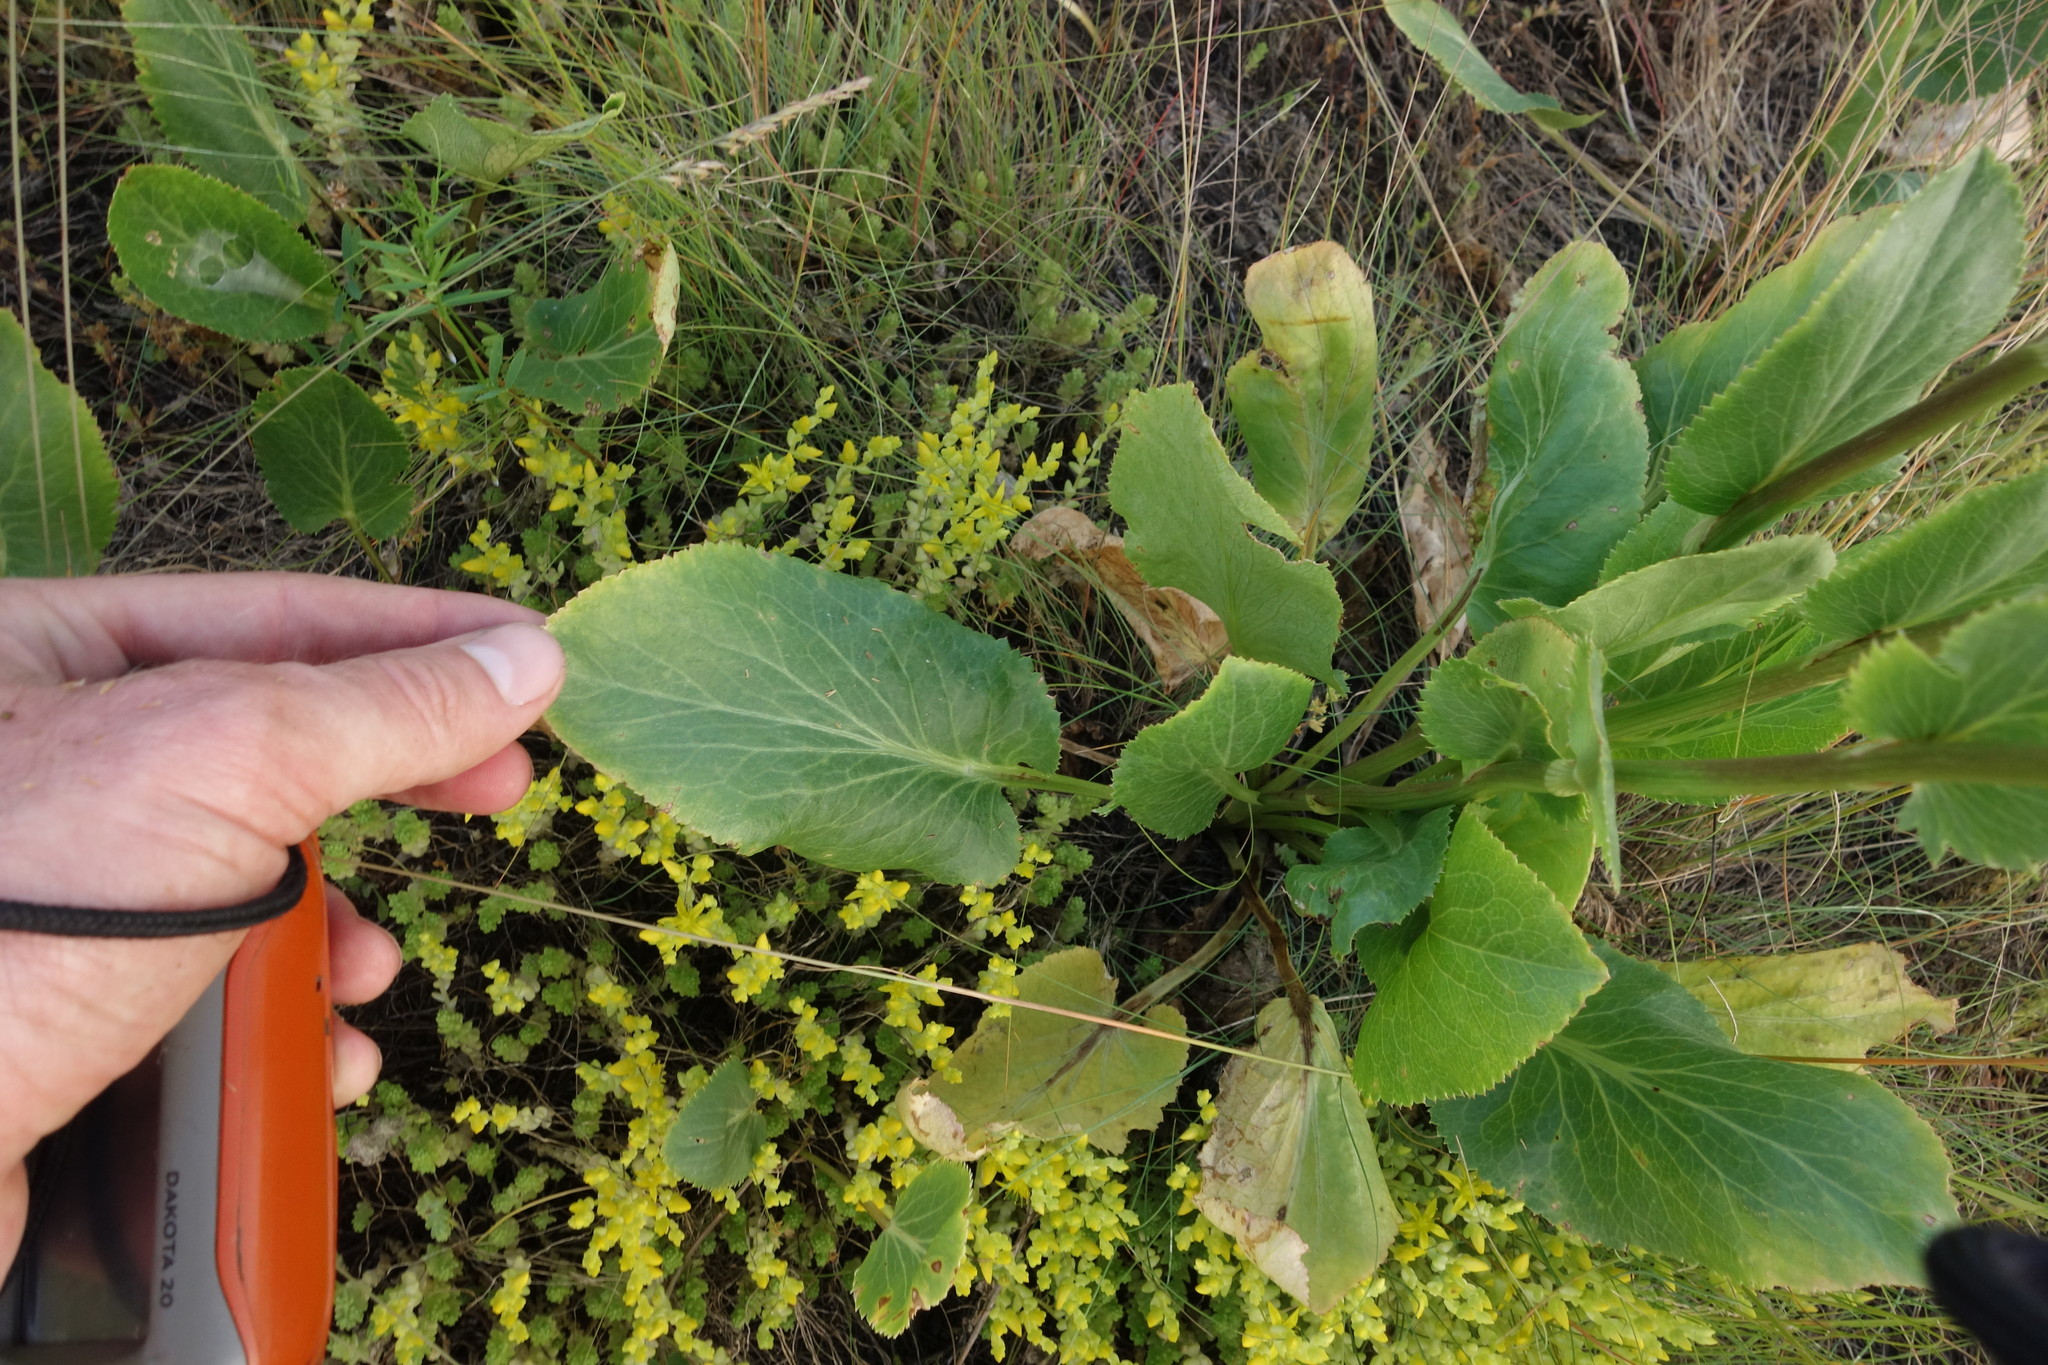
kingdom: Plantae
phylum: Tracheophyta
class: Magnoliopsida
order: Apiales
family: Apiaceae
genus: Eryngium
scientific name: Eryngium planum
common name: Blue eryngo
